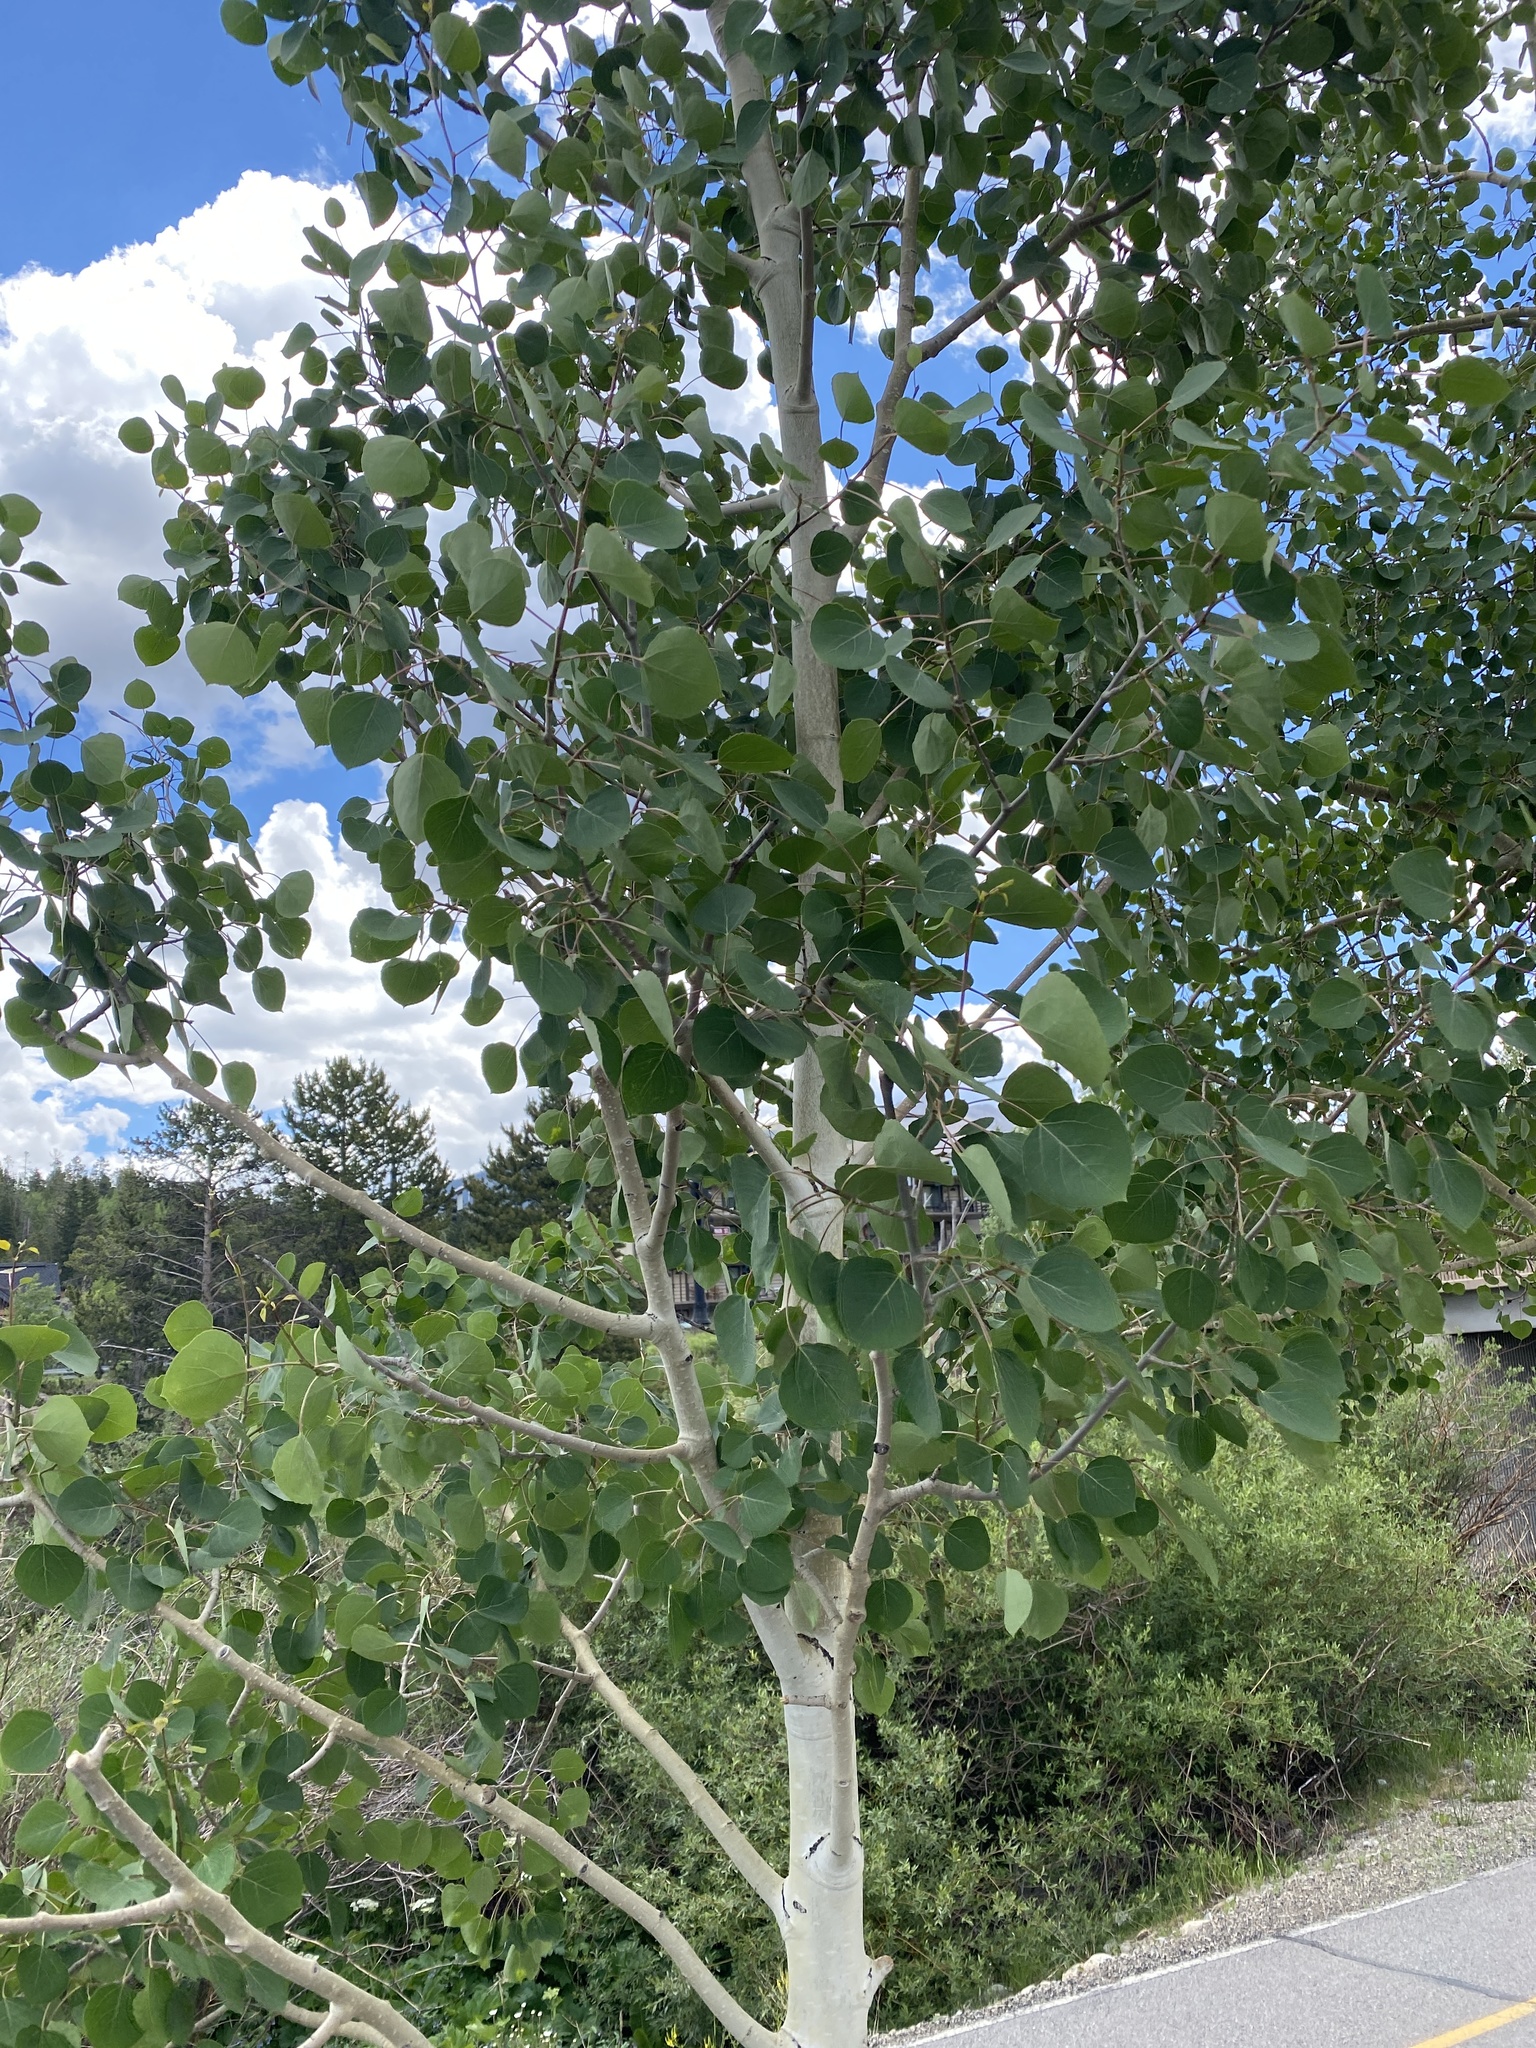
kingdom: Plantae
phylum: Tracheophyta
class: Magnoliopsida
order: Malpighiales
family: Salicaceae
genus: Populus
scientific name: Populus tremuloides
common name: Quaking aspen
